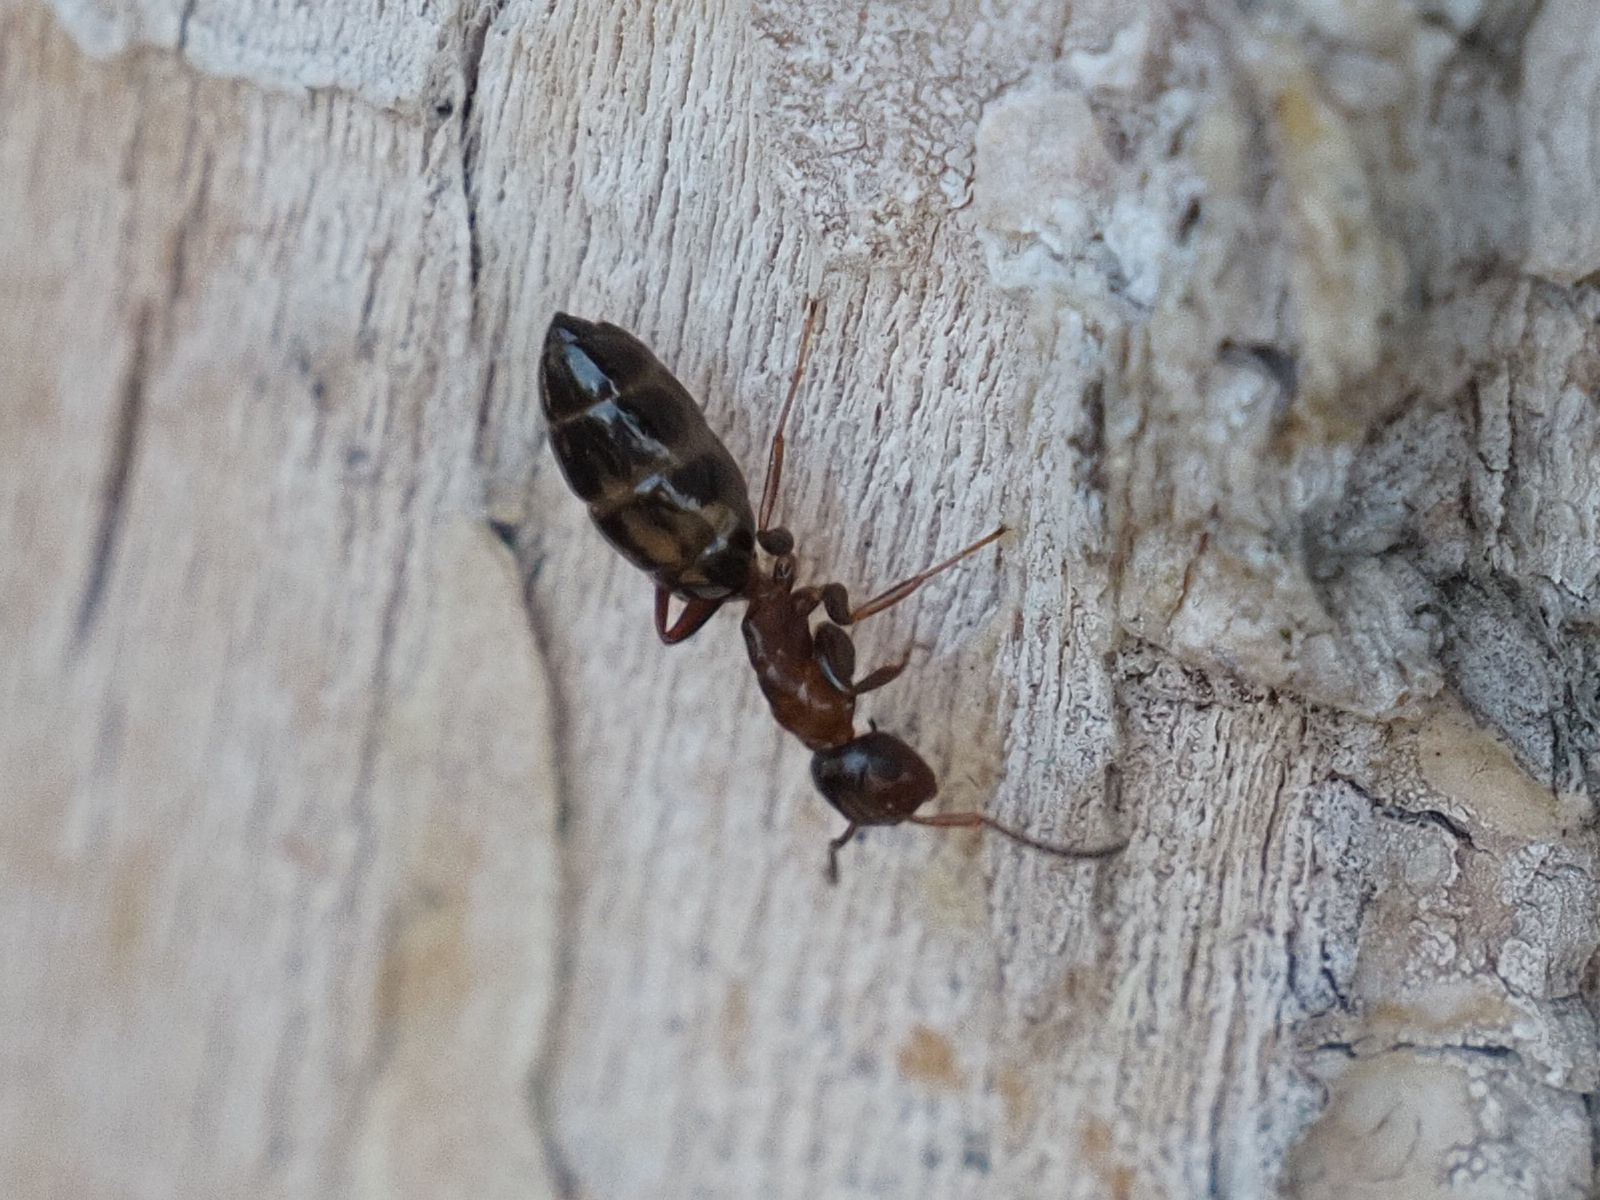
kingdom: Animalia
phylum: Arthropoda
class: Insecta
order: Hymenoptera
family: Formicidae
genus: Camponotus
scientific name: Camponotus truncatus
